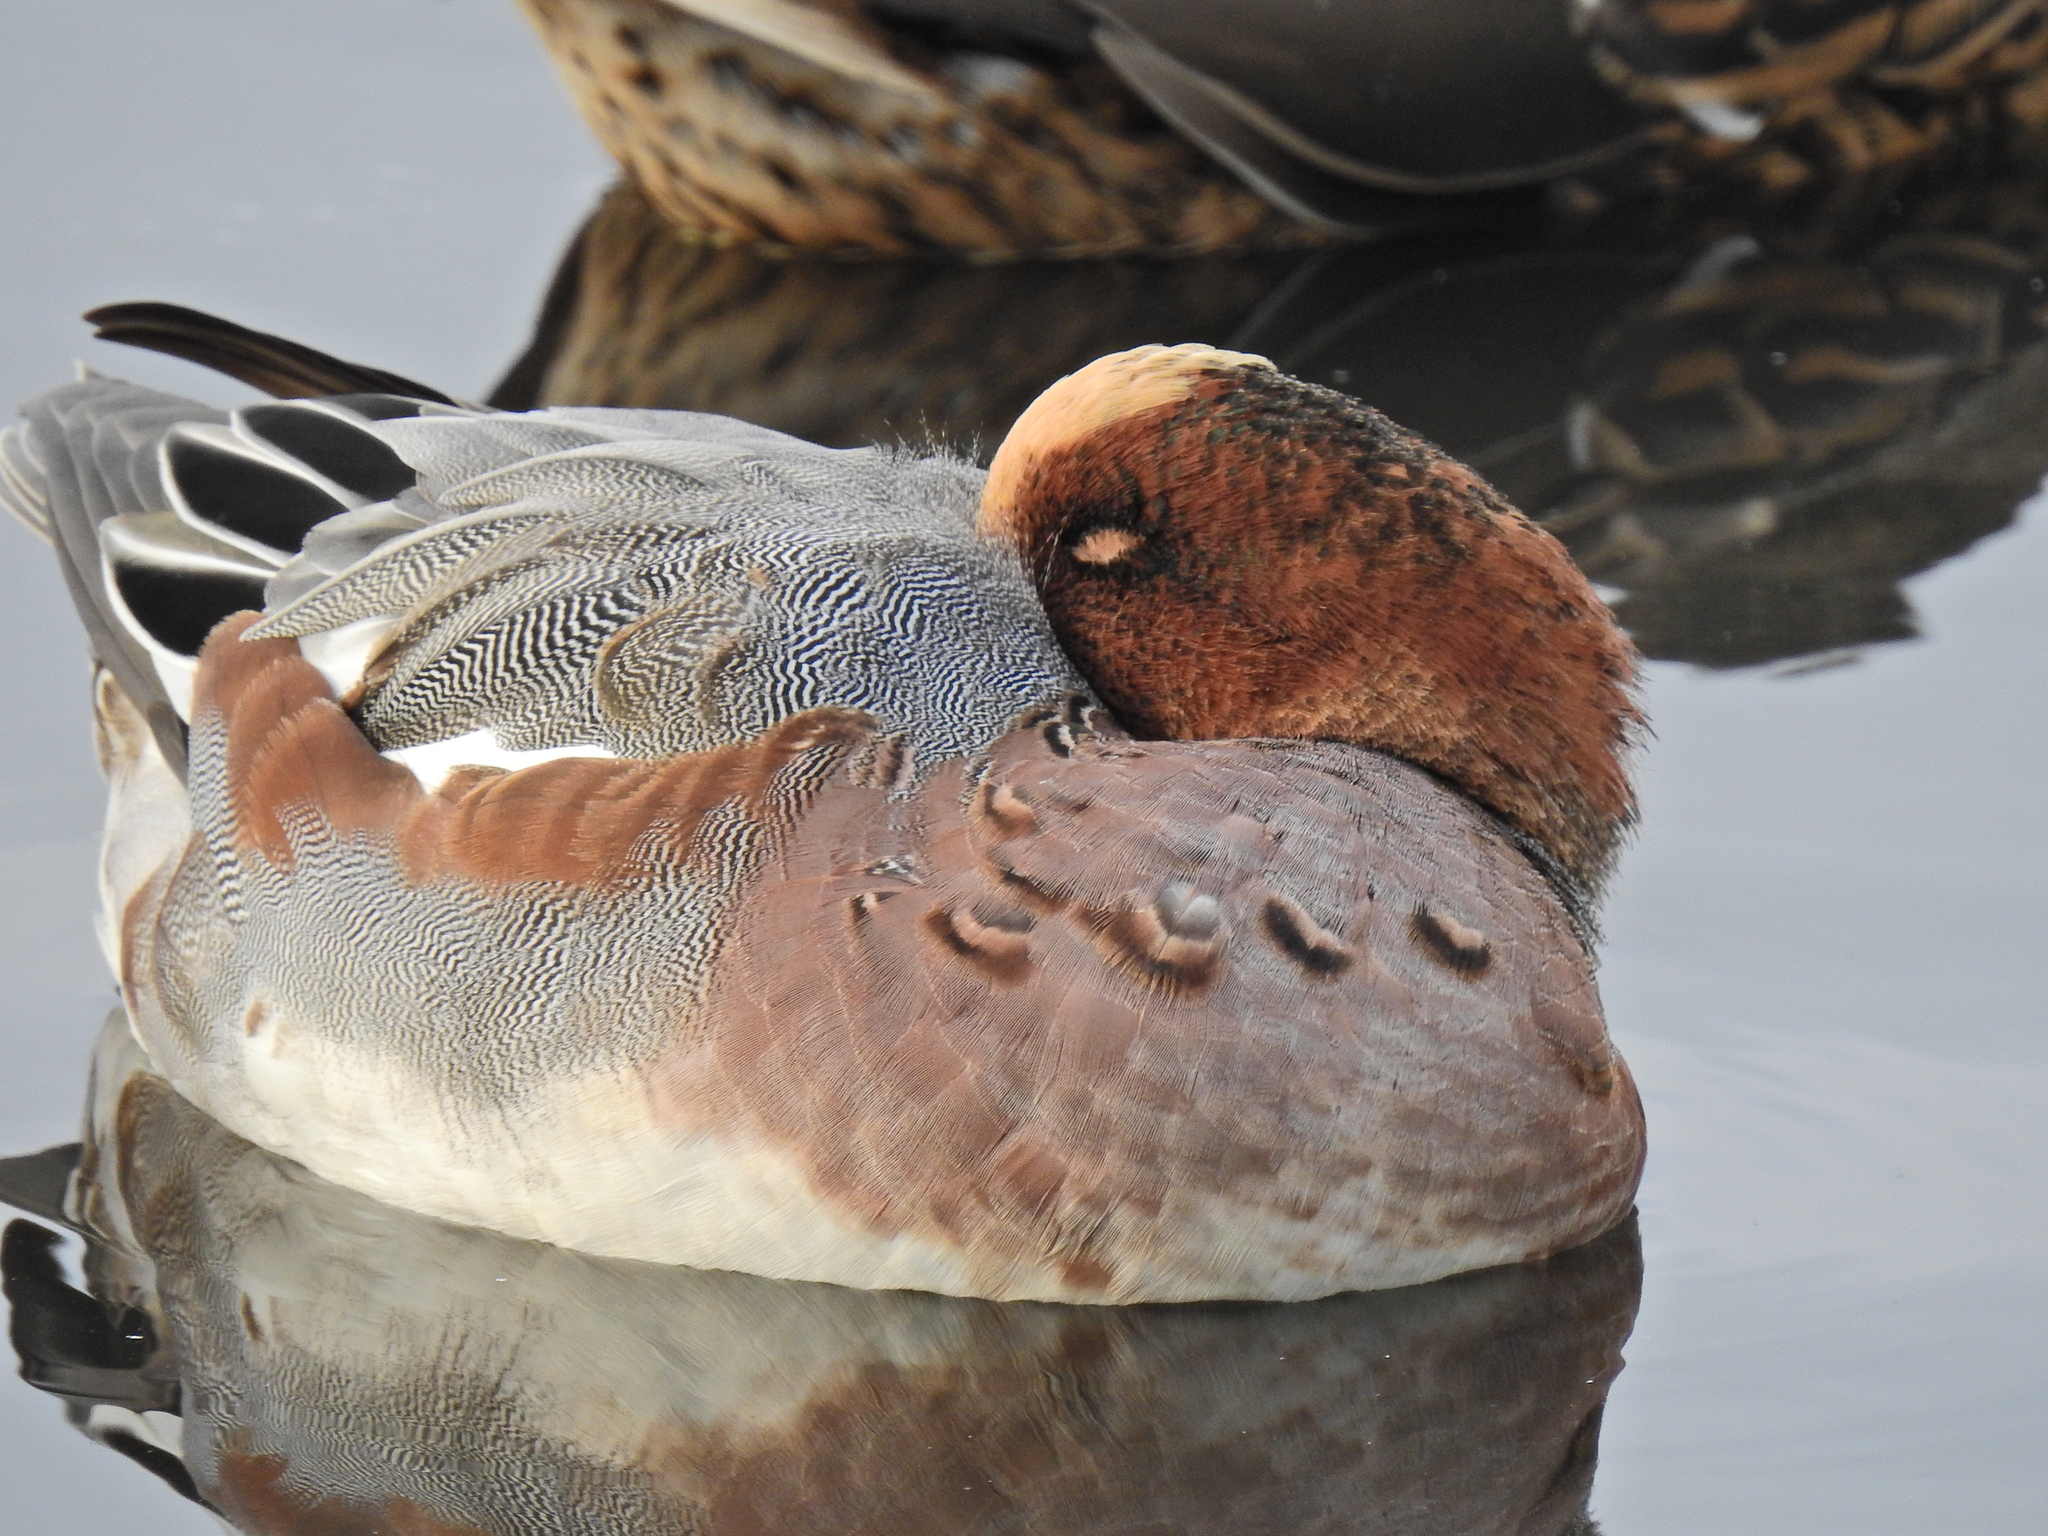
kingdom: Animalia
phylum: Chordata
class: Aves
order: Anseriformes
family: Anatidae
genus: Mareca
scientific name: Mareca penelope
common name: Eurasian wigeon
